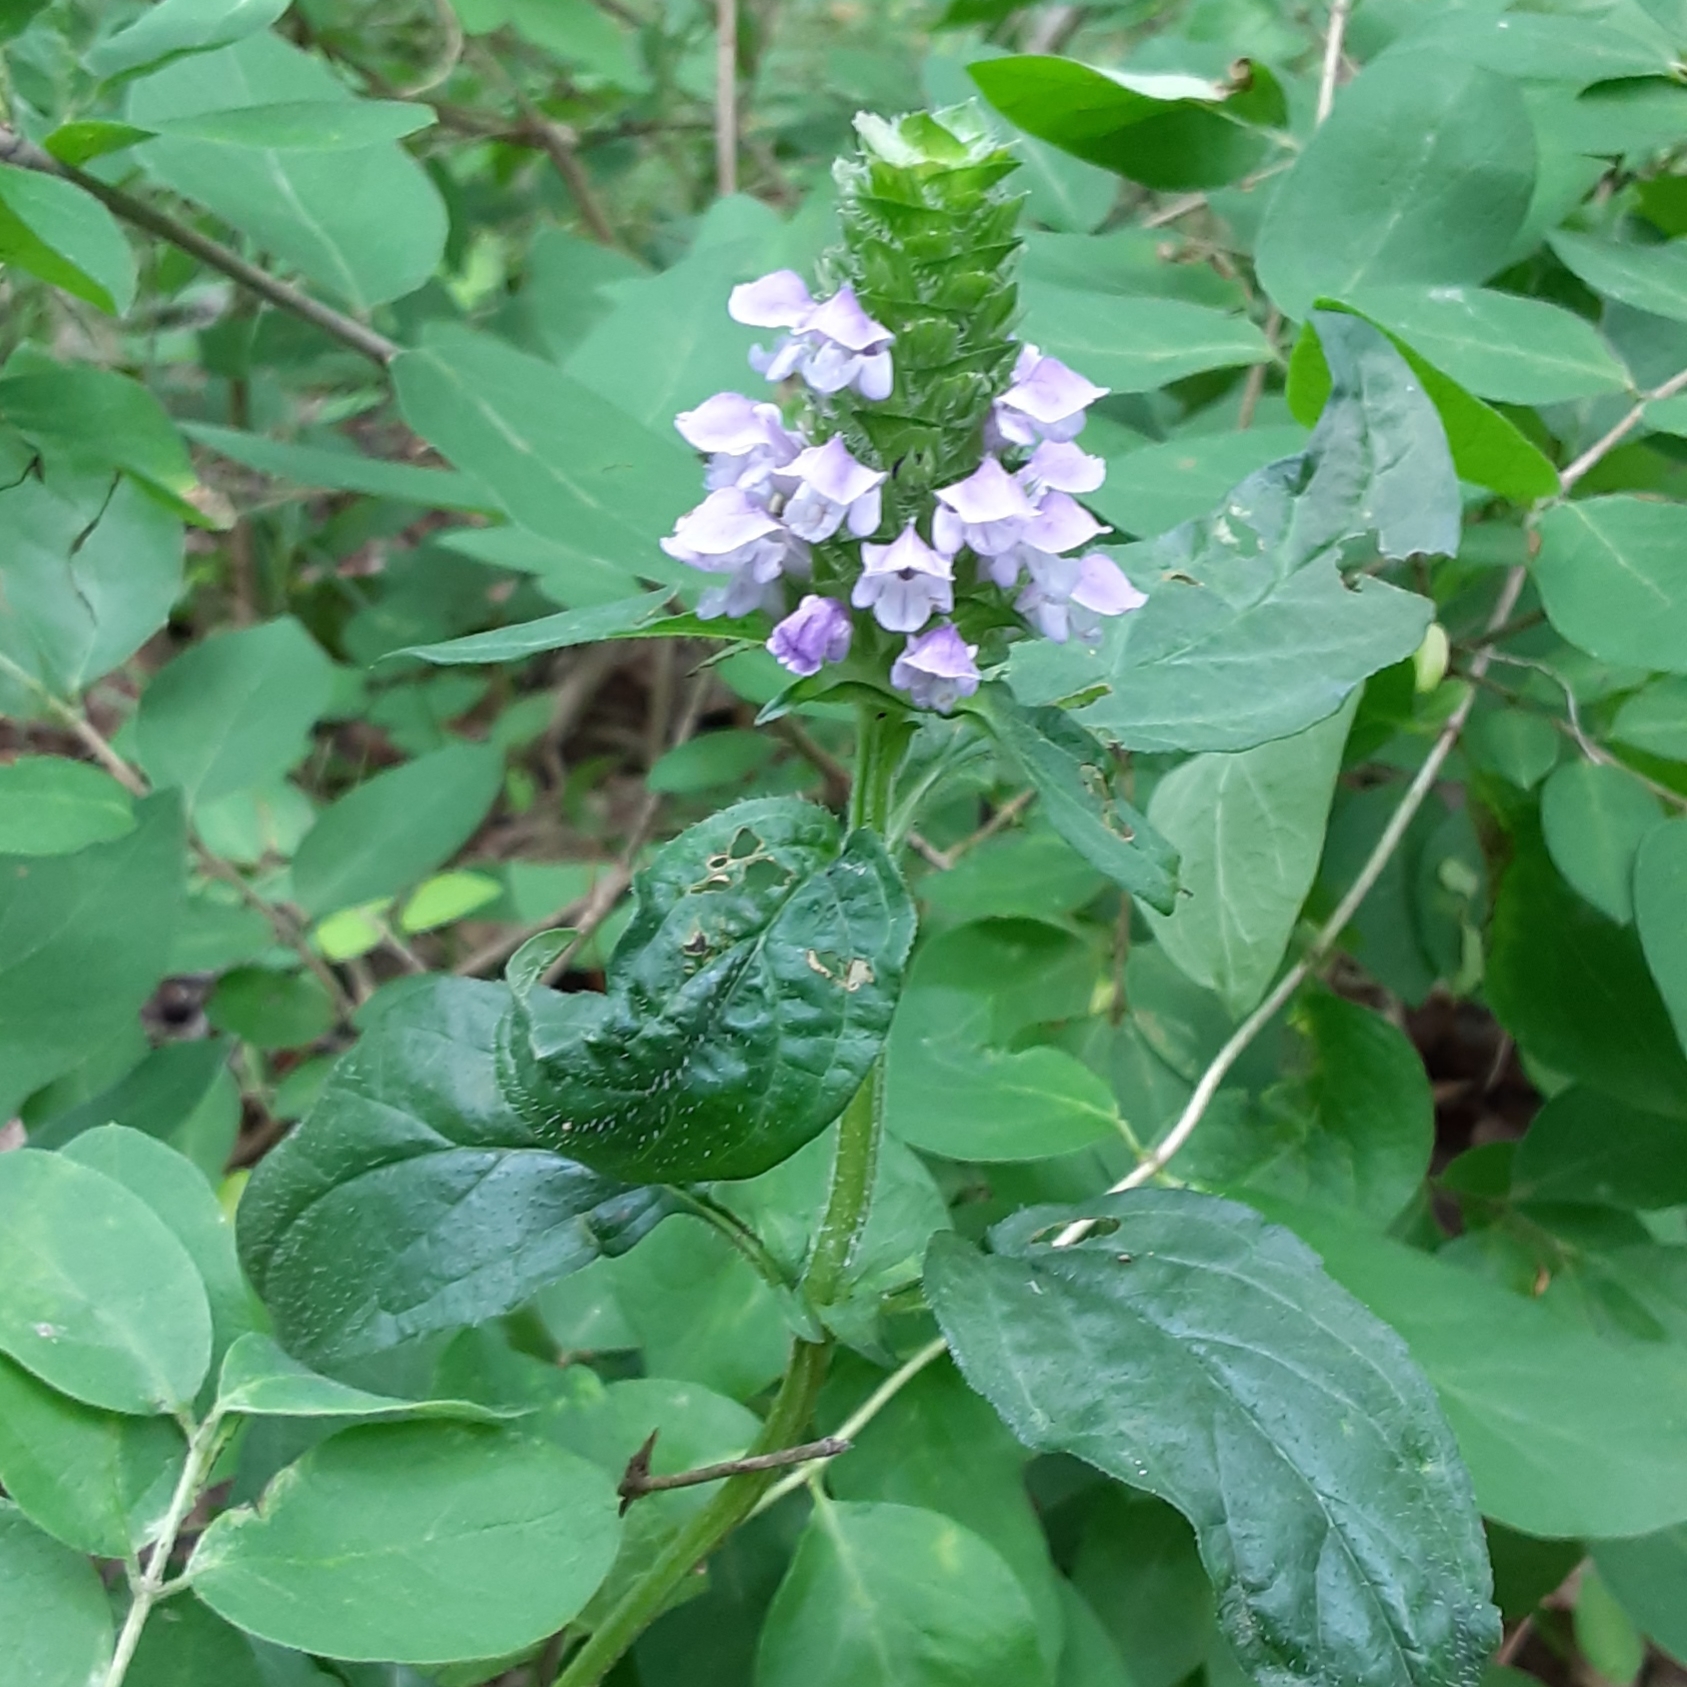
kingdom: Plantae
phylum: Tracheophyta
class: Magnoliopsida
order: Lamiales
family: Lamiaceae
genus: Prunella
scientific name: Prunella vulgaris
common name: Heal-all
